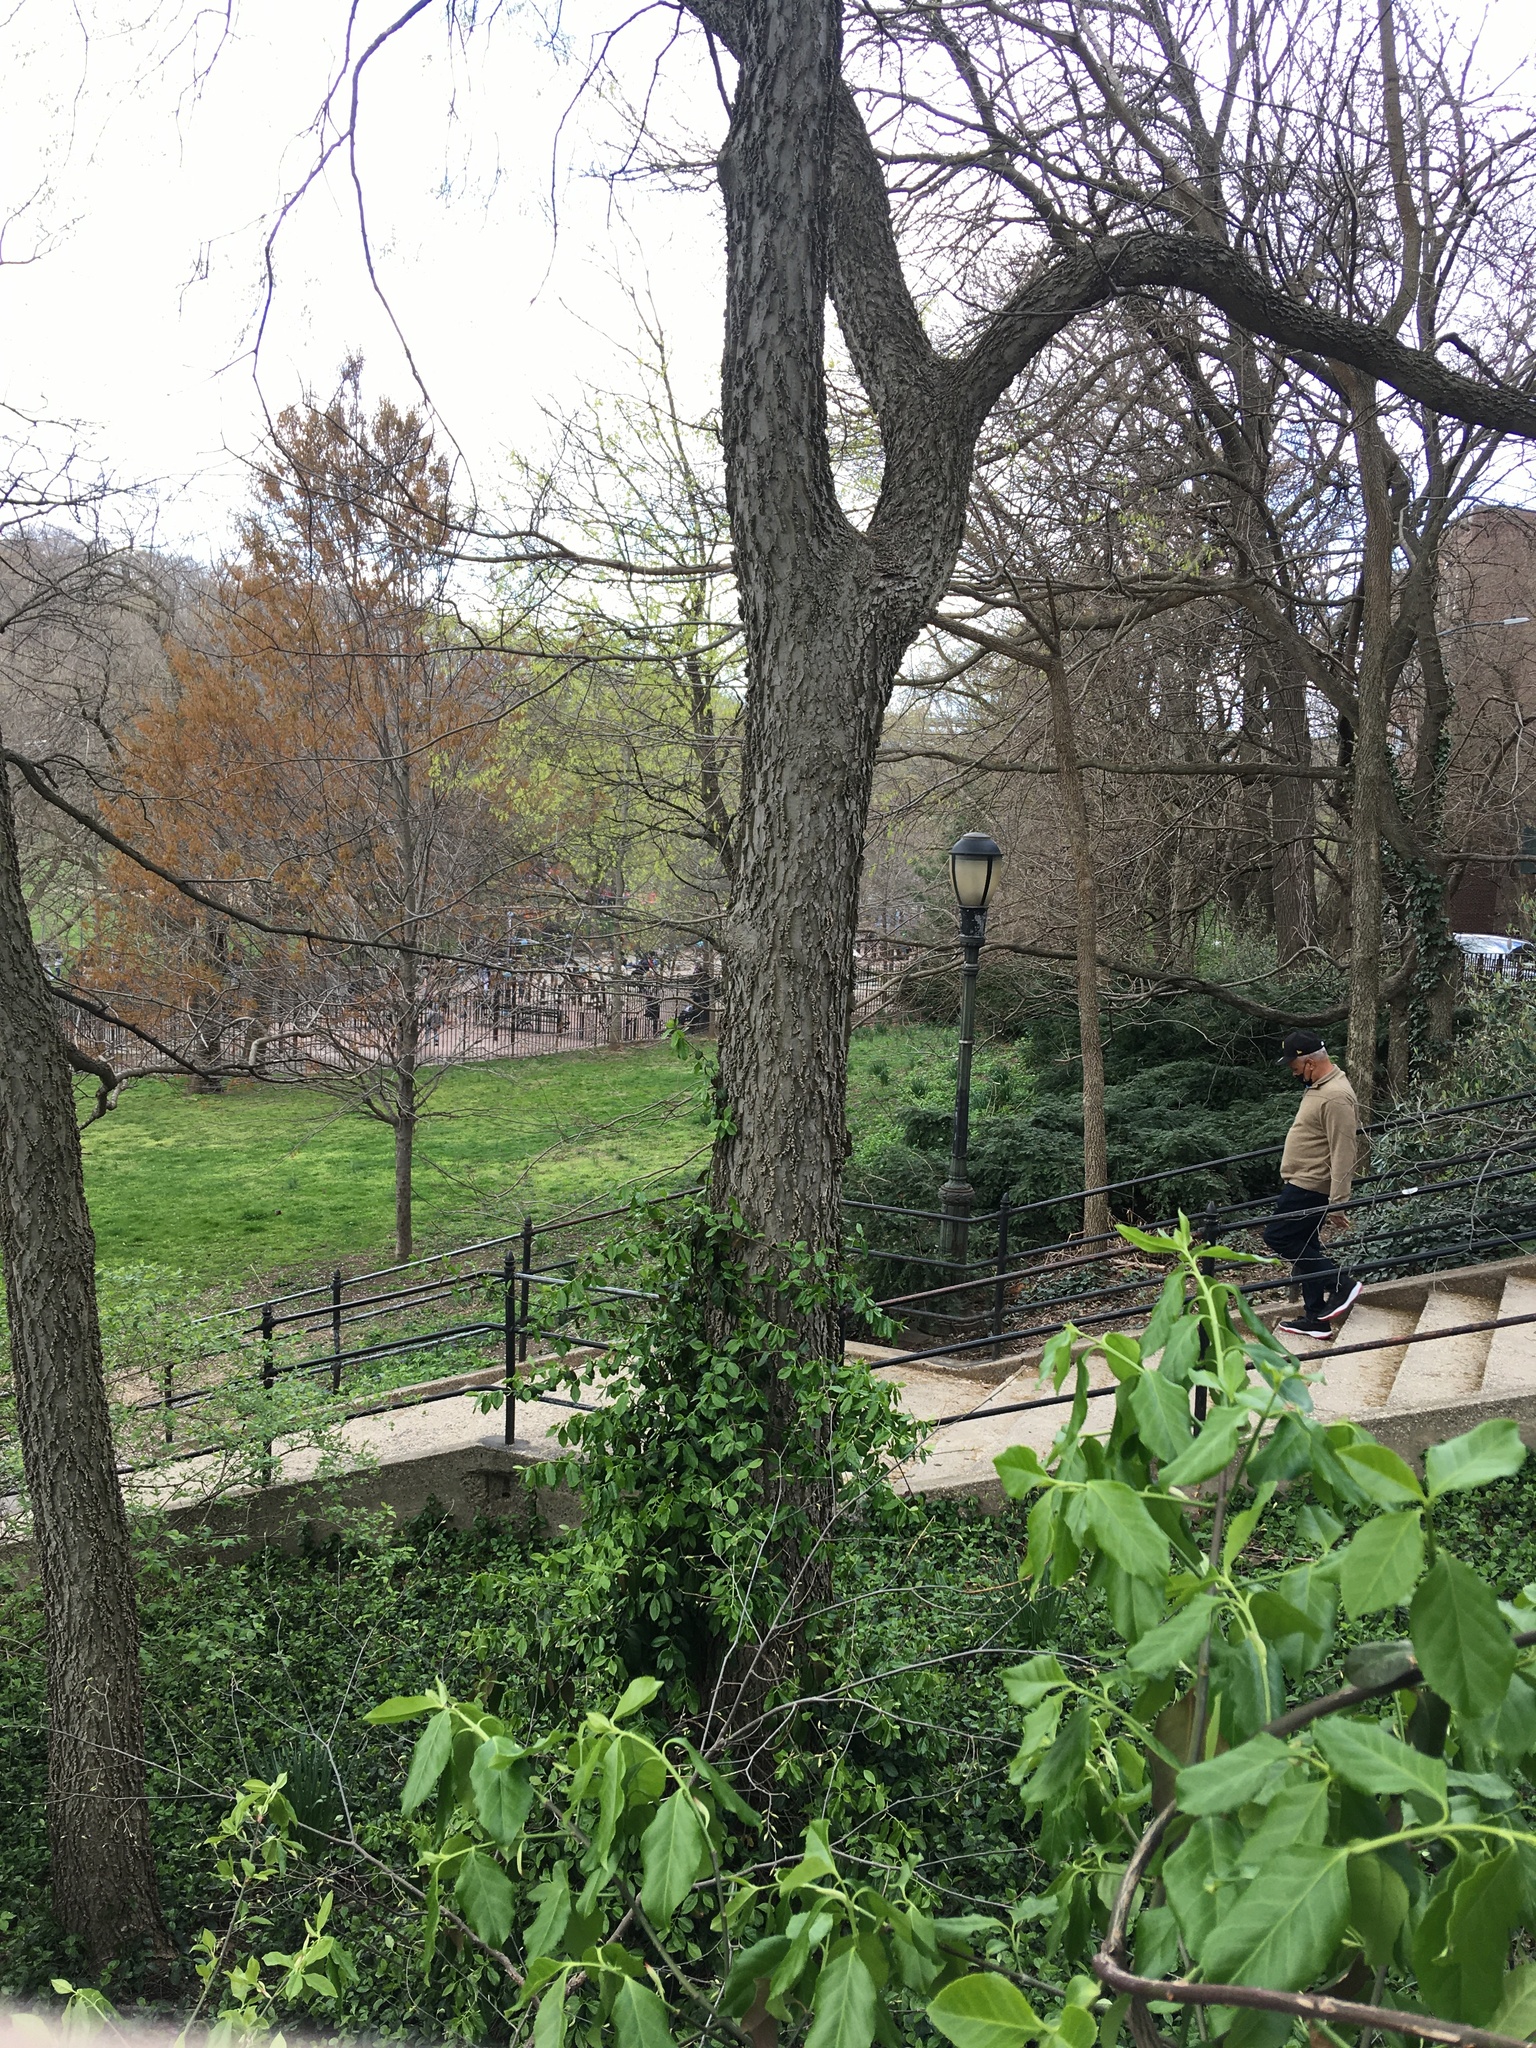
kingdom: Plantae
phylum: Tracheophyta
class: Magnoliopsida
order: Rosales
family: Cannabaceae
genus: Celtis
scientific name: Celtis occidentalis
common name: Common hackberry
